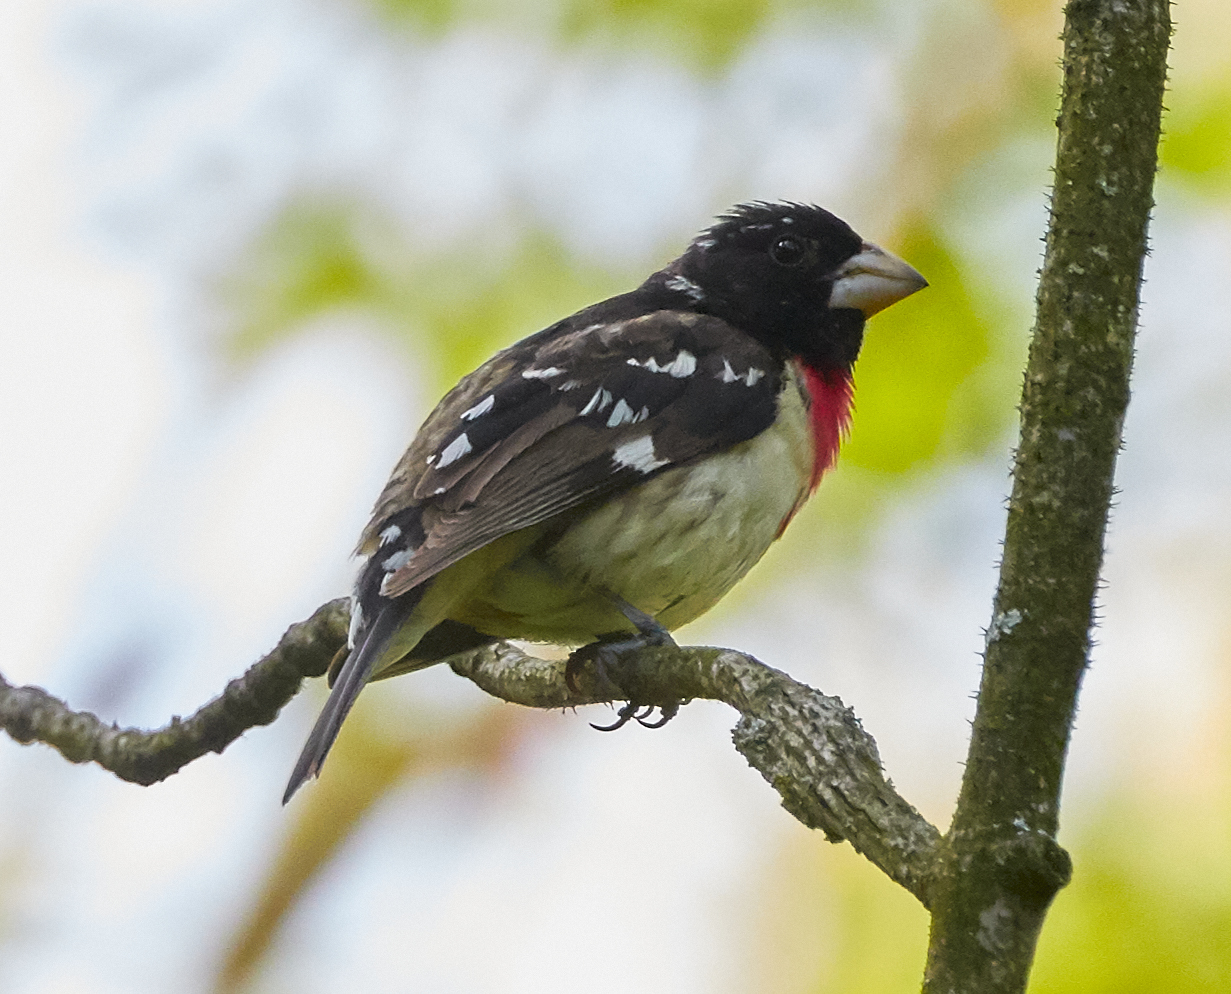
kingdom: Animalia
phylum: Chordata
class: Aves
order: Passeriformes
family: Cardinalidae
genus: Pheucticus
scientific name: Pheucticus ludovicianus
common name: Rose-breasted grosbeak
